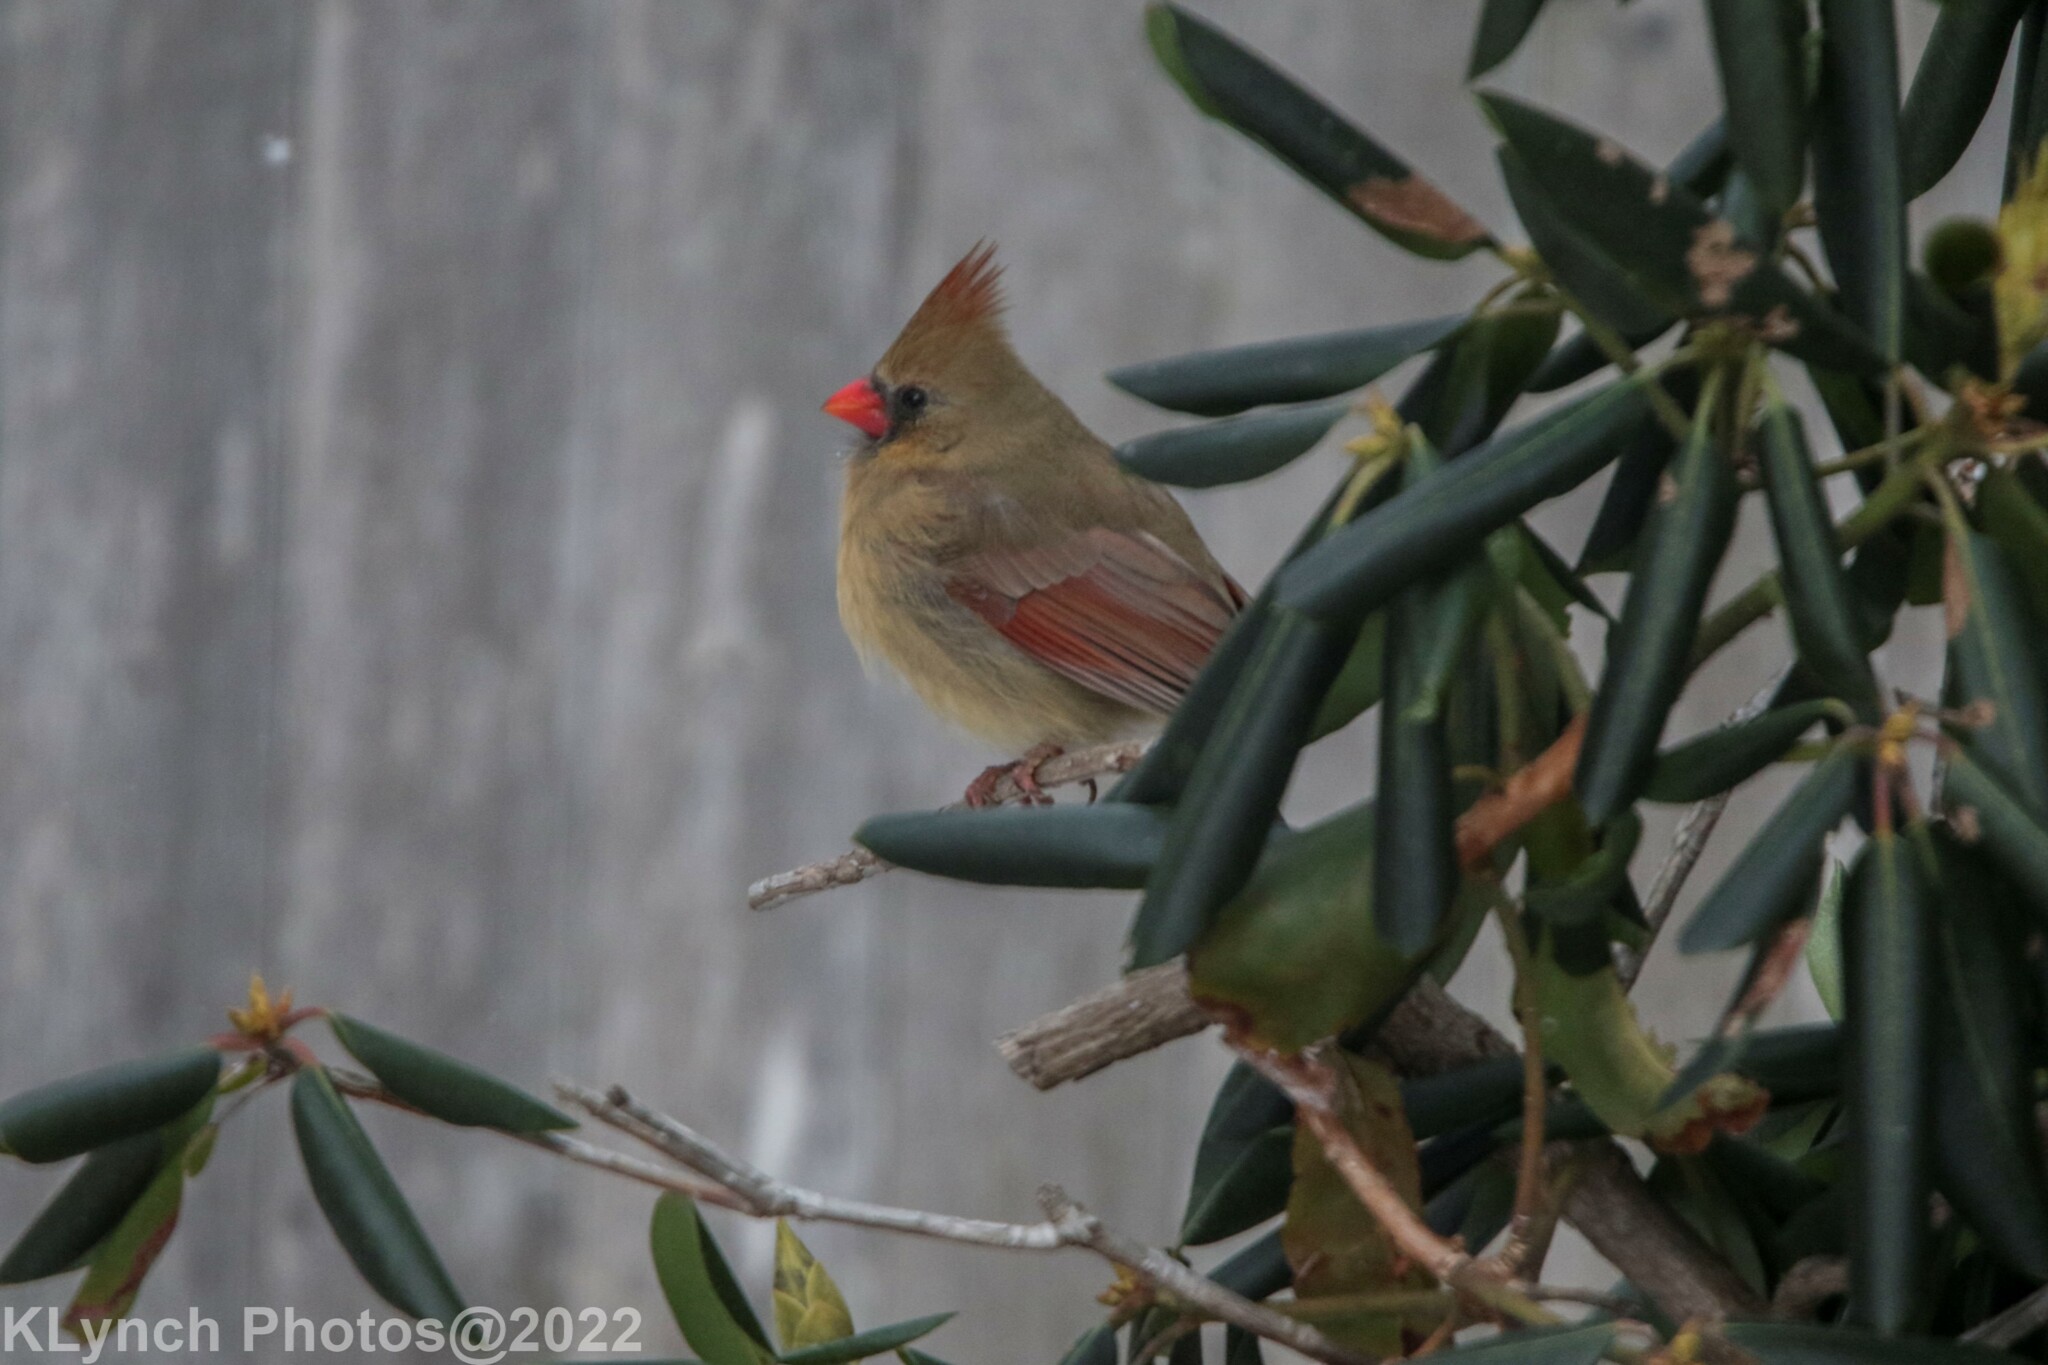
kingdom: Animalia
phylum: Chordata
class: Aves
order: Passeriformes
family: Cardinalidae
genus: Cardinalis
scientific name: Cardinalis cardinalis
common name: Northern cardinal
